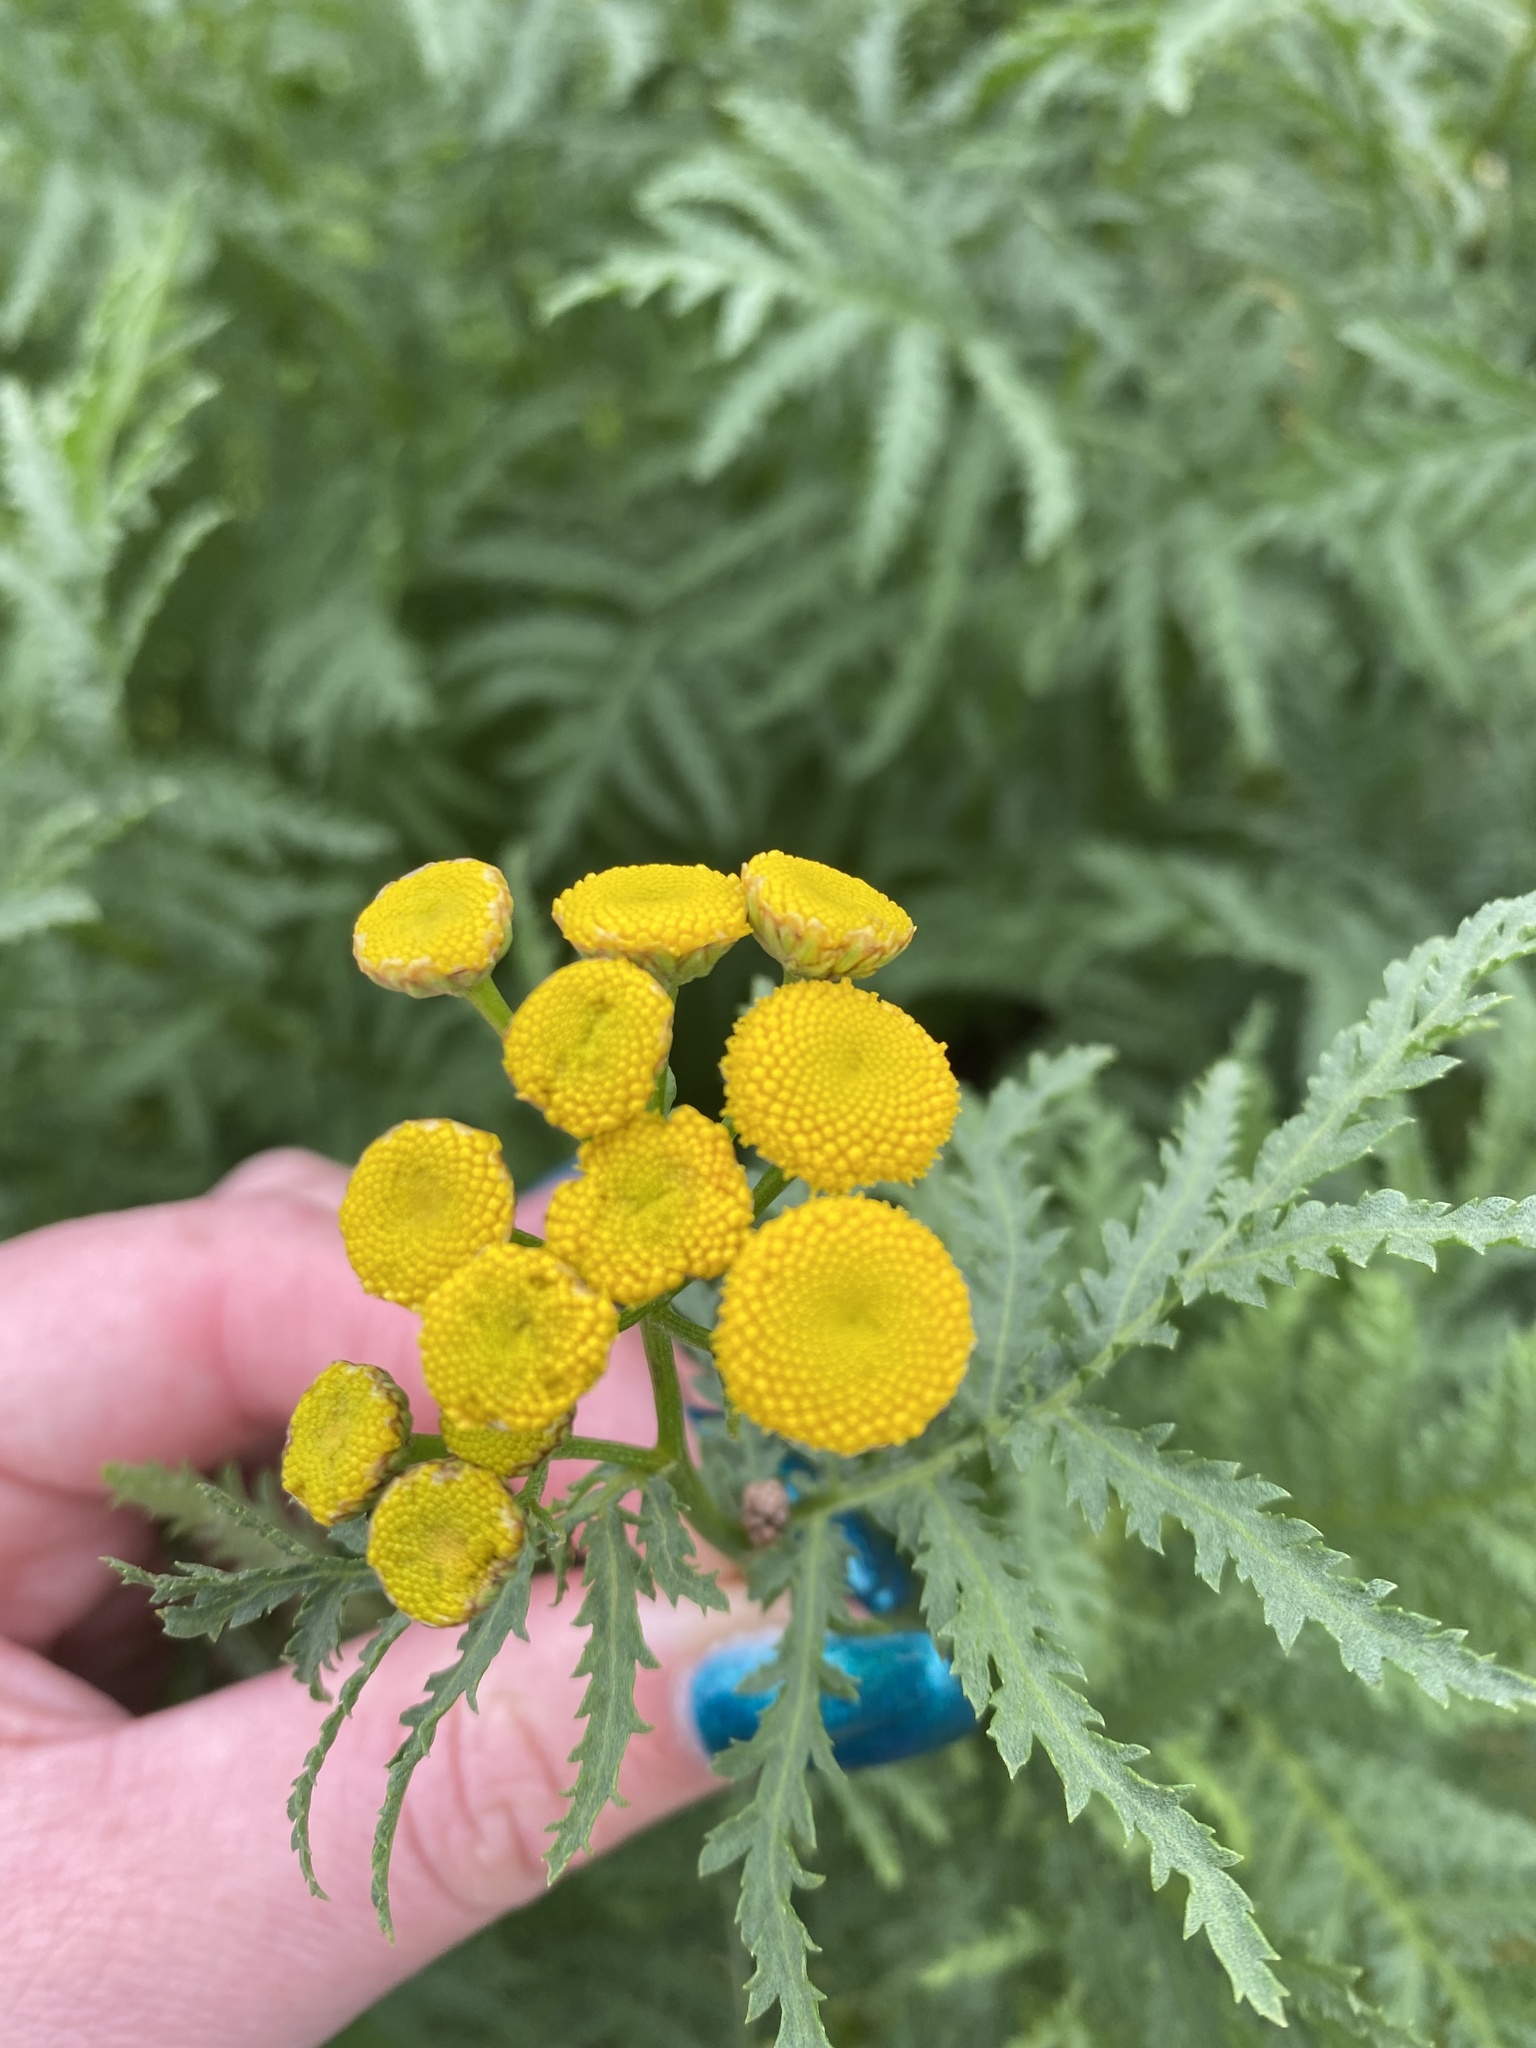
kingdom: Plantae
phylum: Tracheophyta
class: Magnoliopsida
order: Asterales
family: Asteraceae
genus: Tanacetum
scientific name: Tanacetum vulgare
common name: Common tansy
